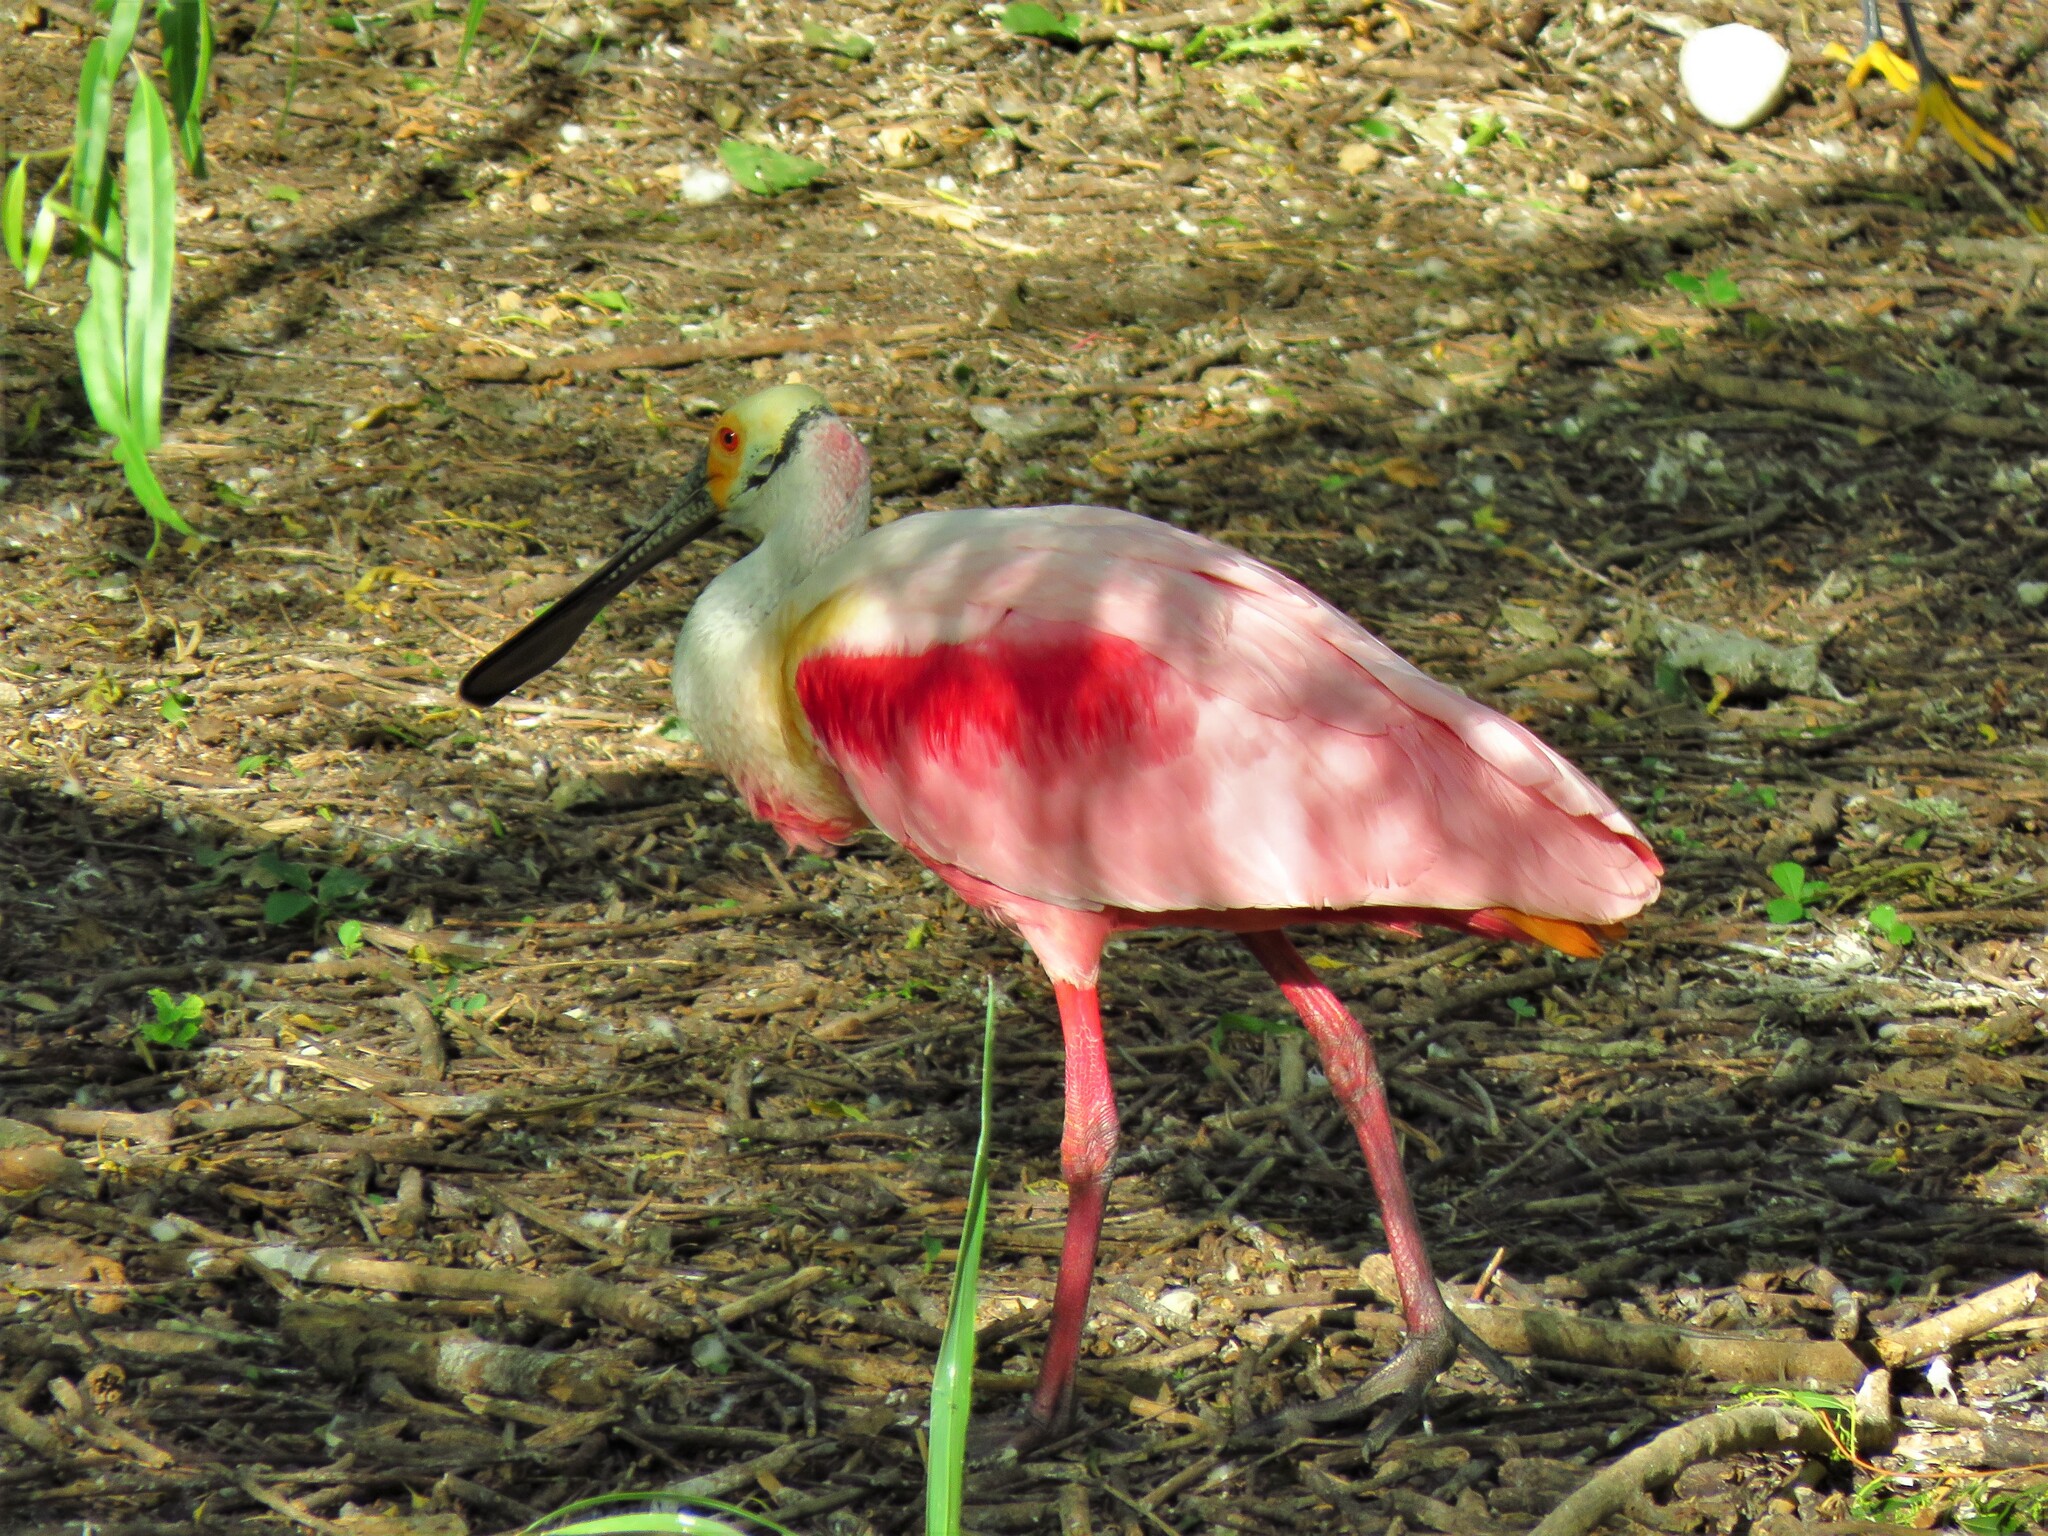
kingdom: Animalia
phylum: Chordata
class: Aves
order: Pelecaniformes
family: Threskiornithidae
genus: Platalea
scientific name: Platalea ajaja
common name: Roseate spoonbill
